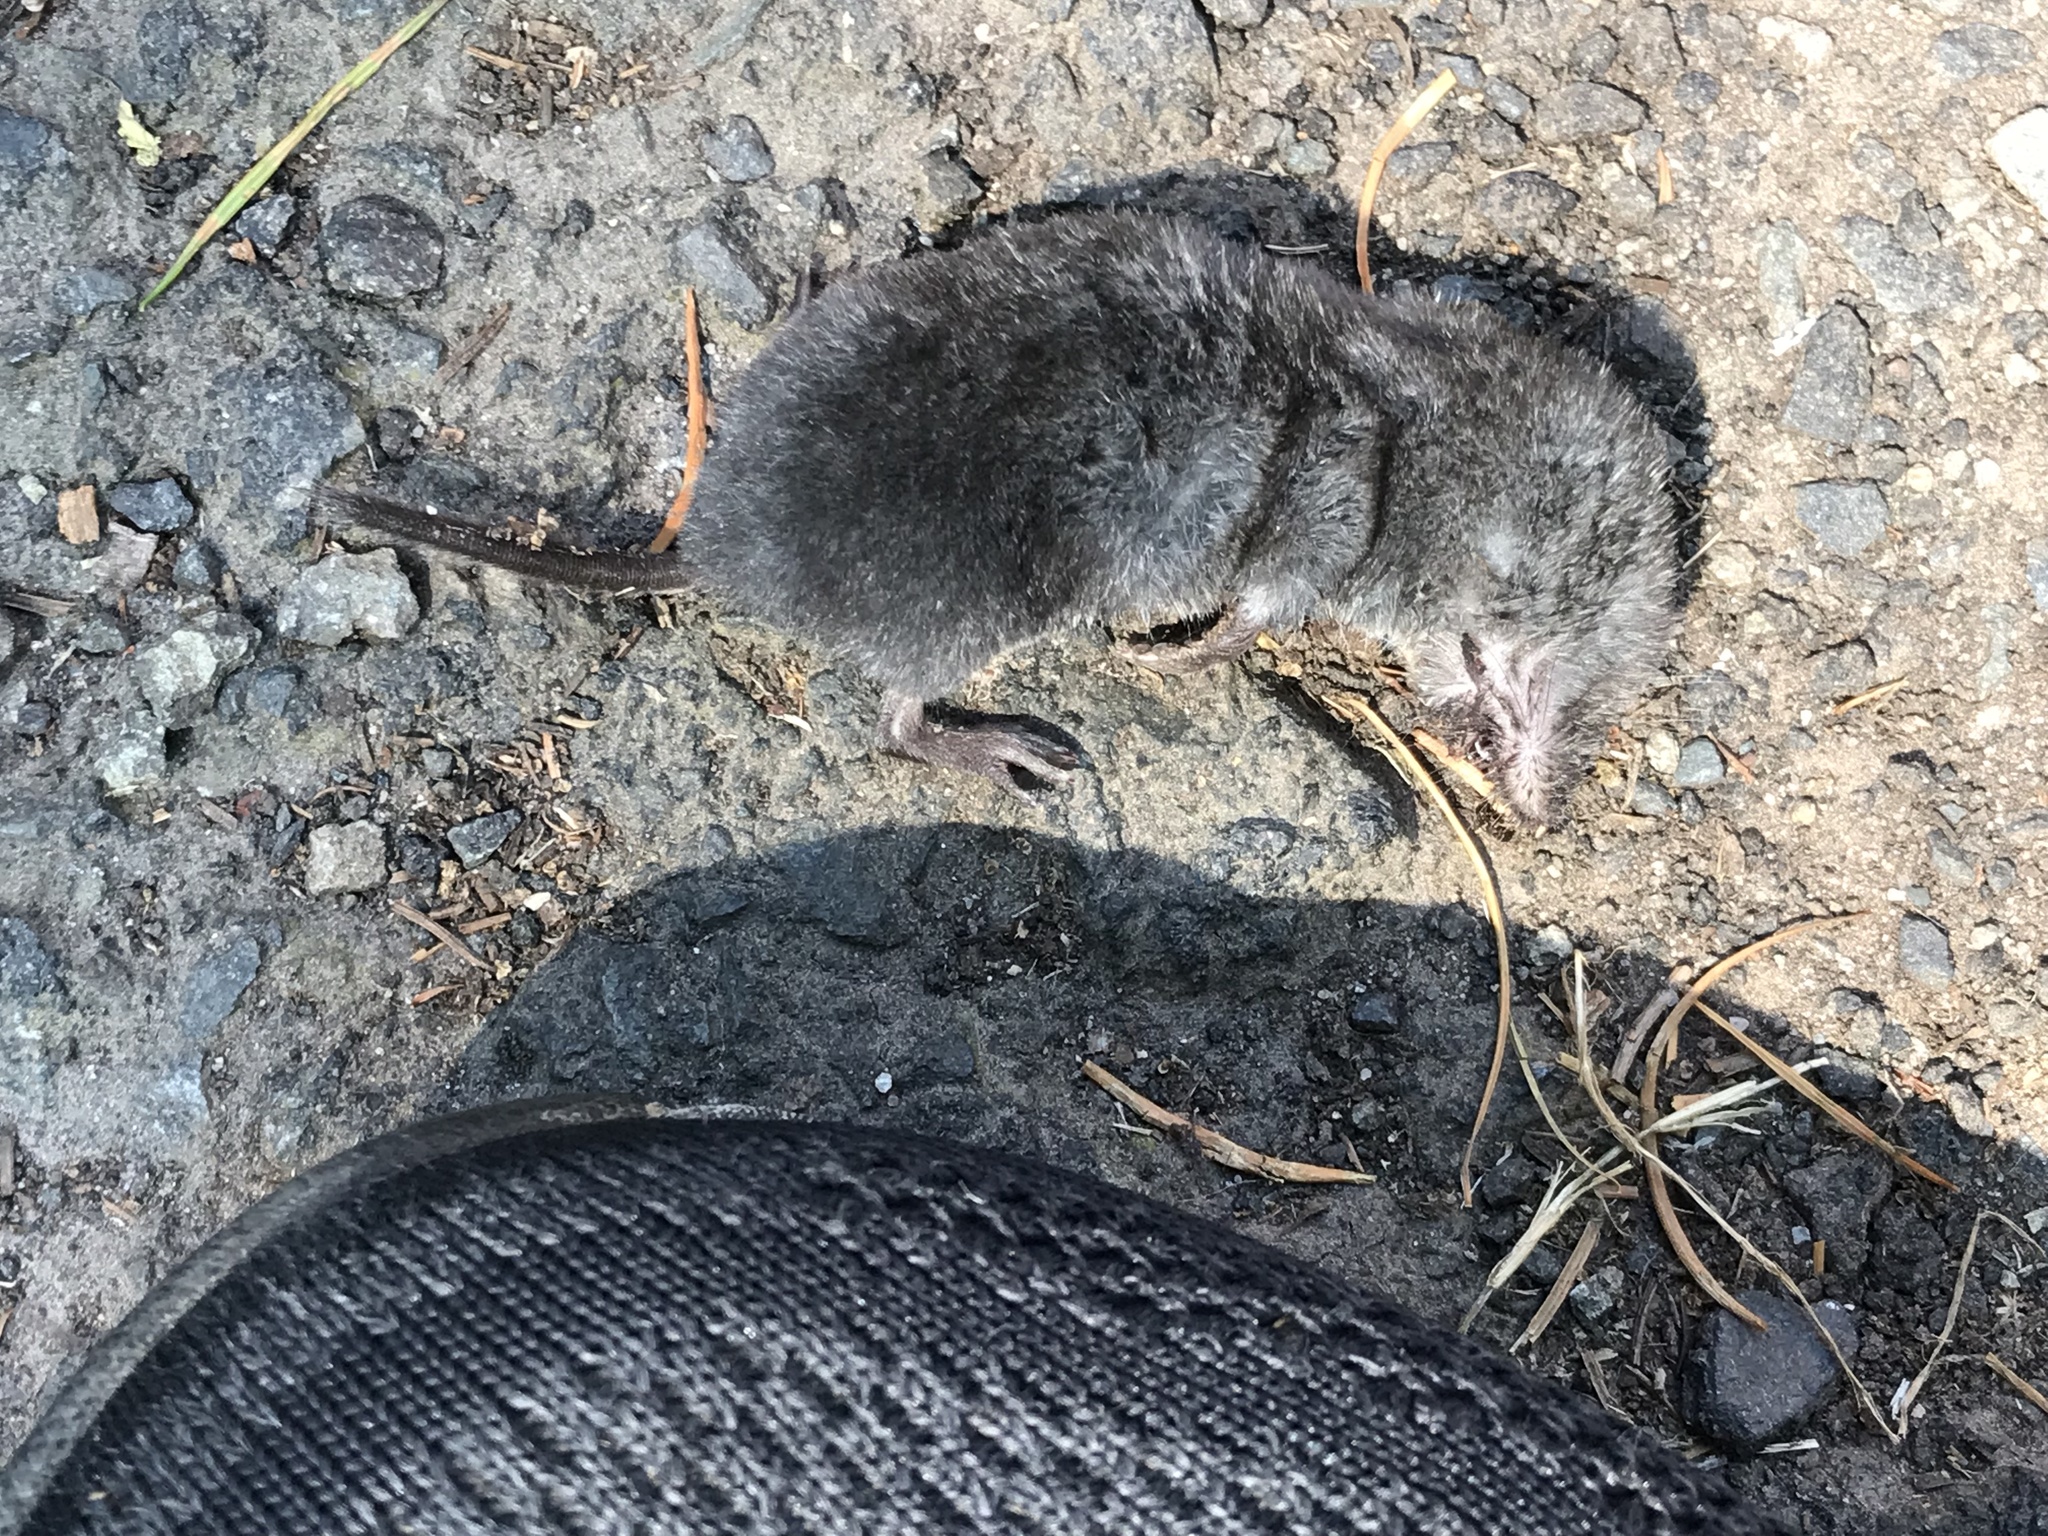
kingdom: Animalia
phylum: Chordata
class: Mammalia
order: Soricomorpha
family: Soricidae
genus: Blarina
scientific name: Blarina brevicauda
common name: Northern short-tailed shrew
